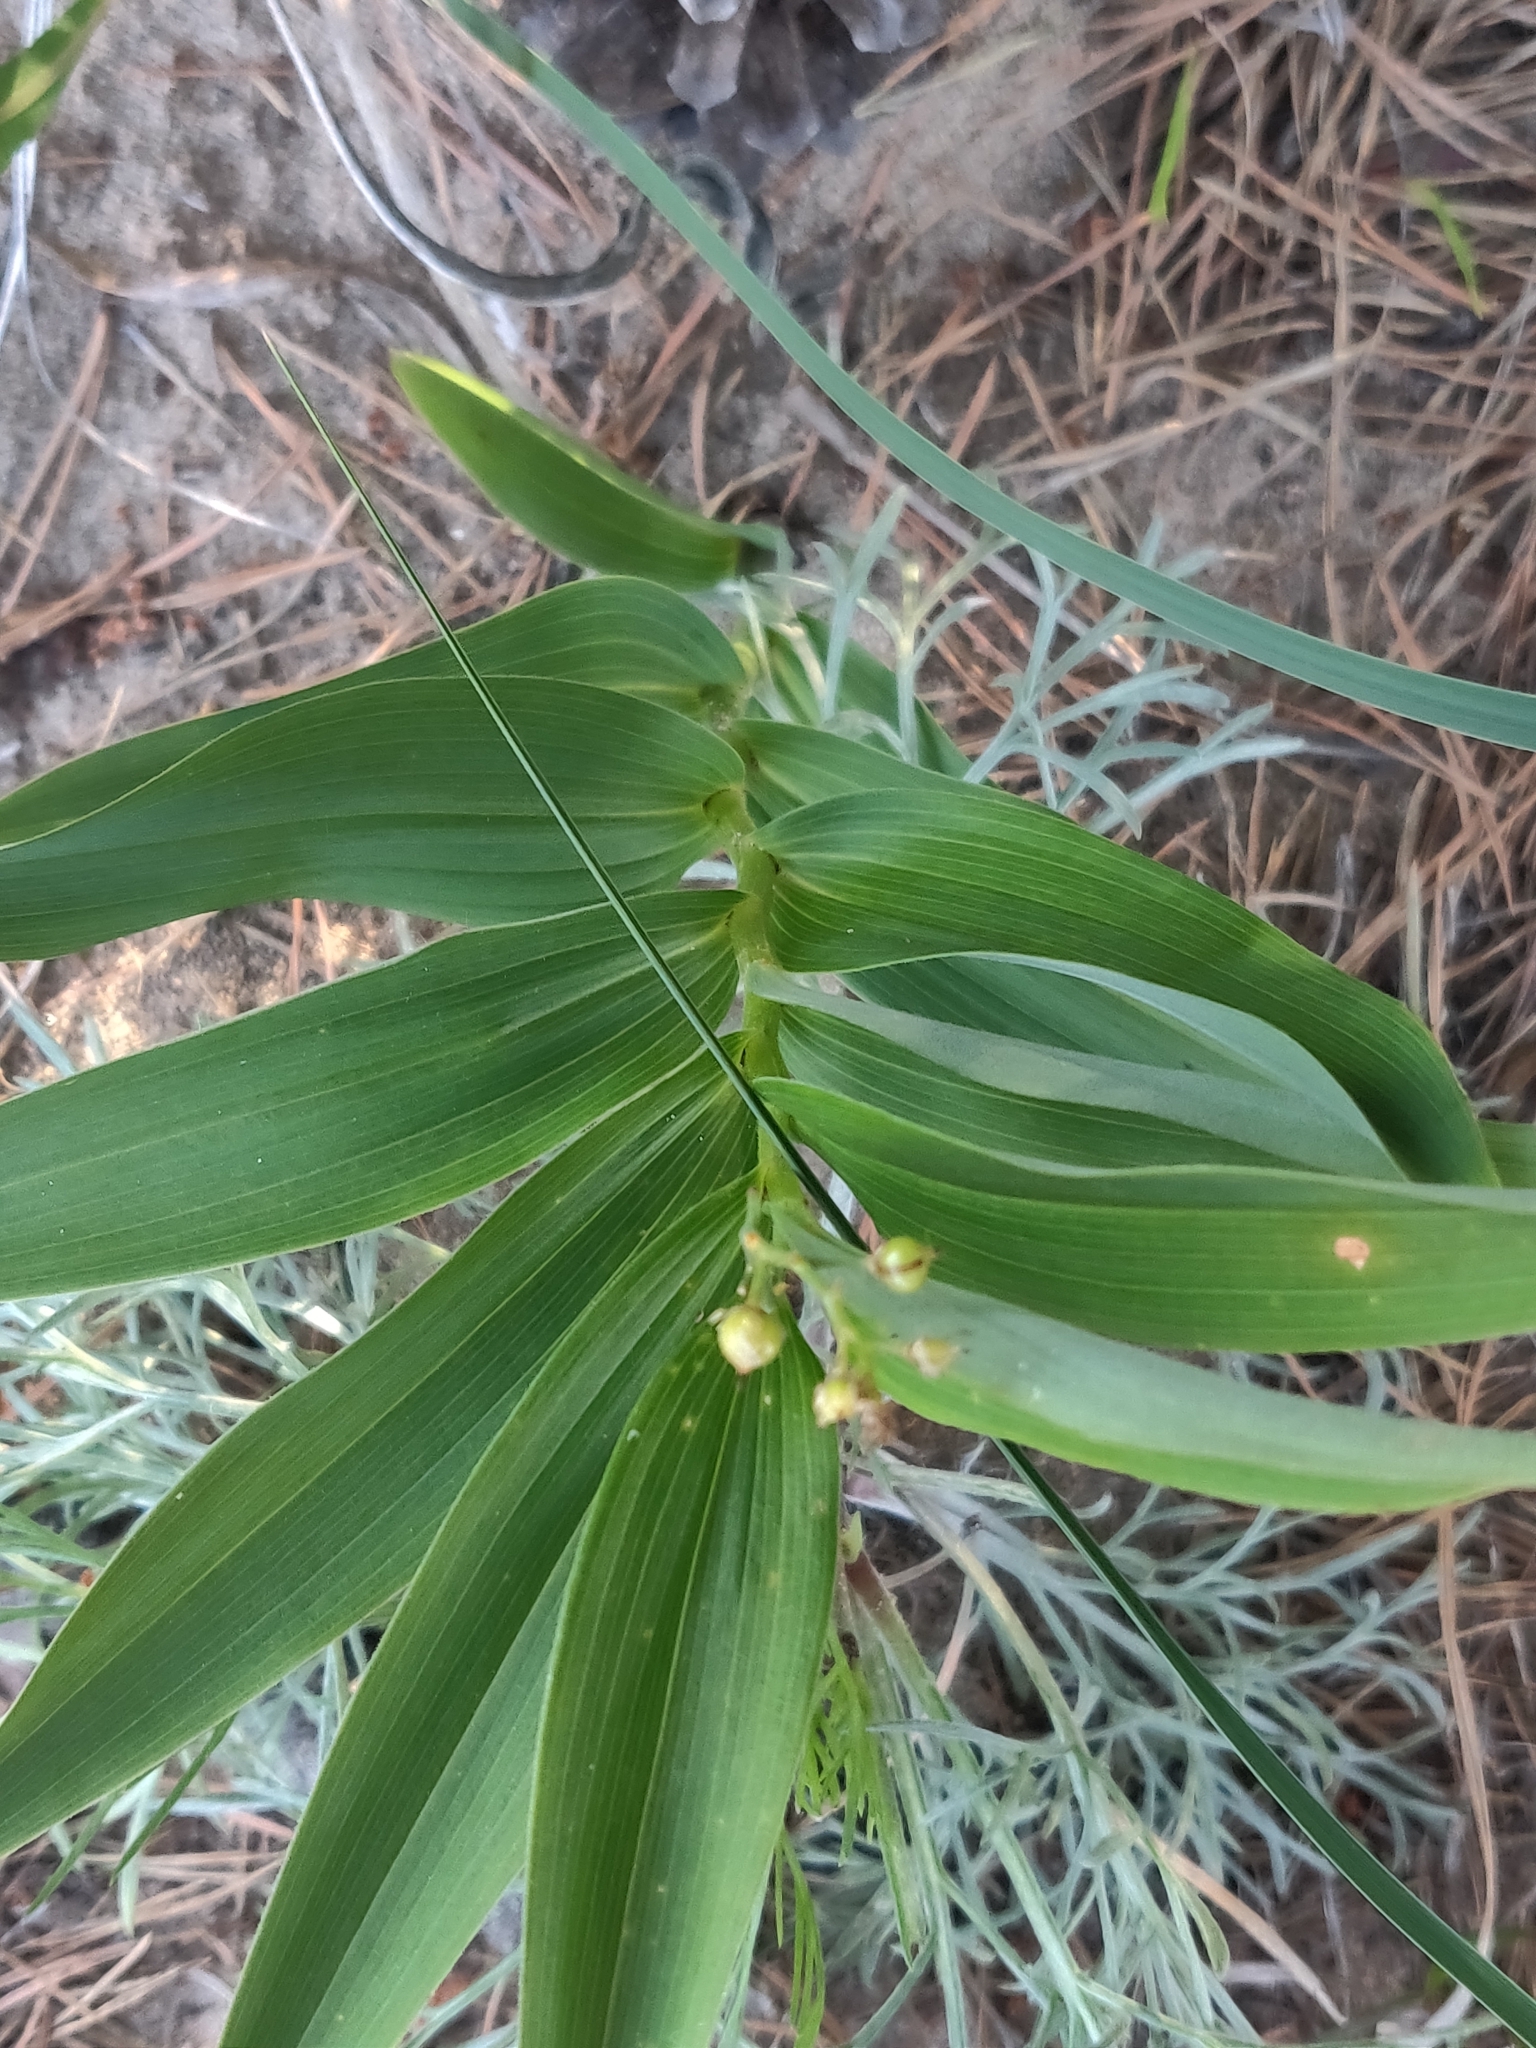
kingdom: Plantae
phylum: Tracheophyta
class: Liliopsida
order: Asparagales
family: Asparagaceae
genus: Maianthemum
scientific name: Maianthemum stellatum
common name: Little false solomon's seal
